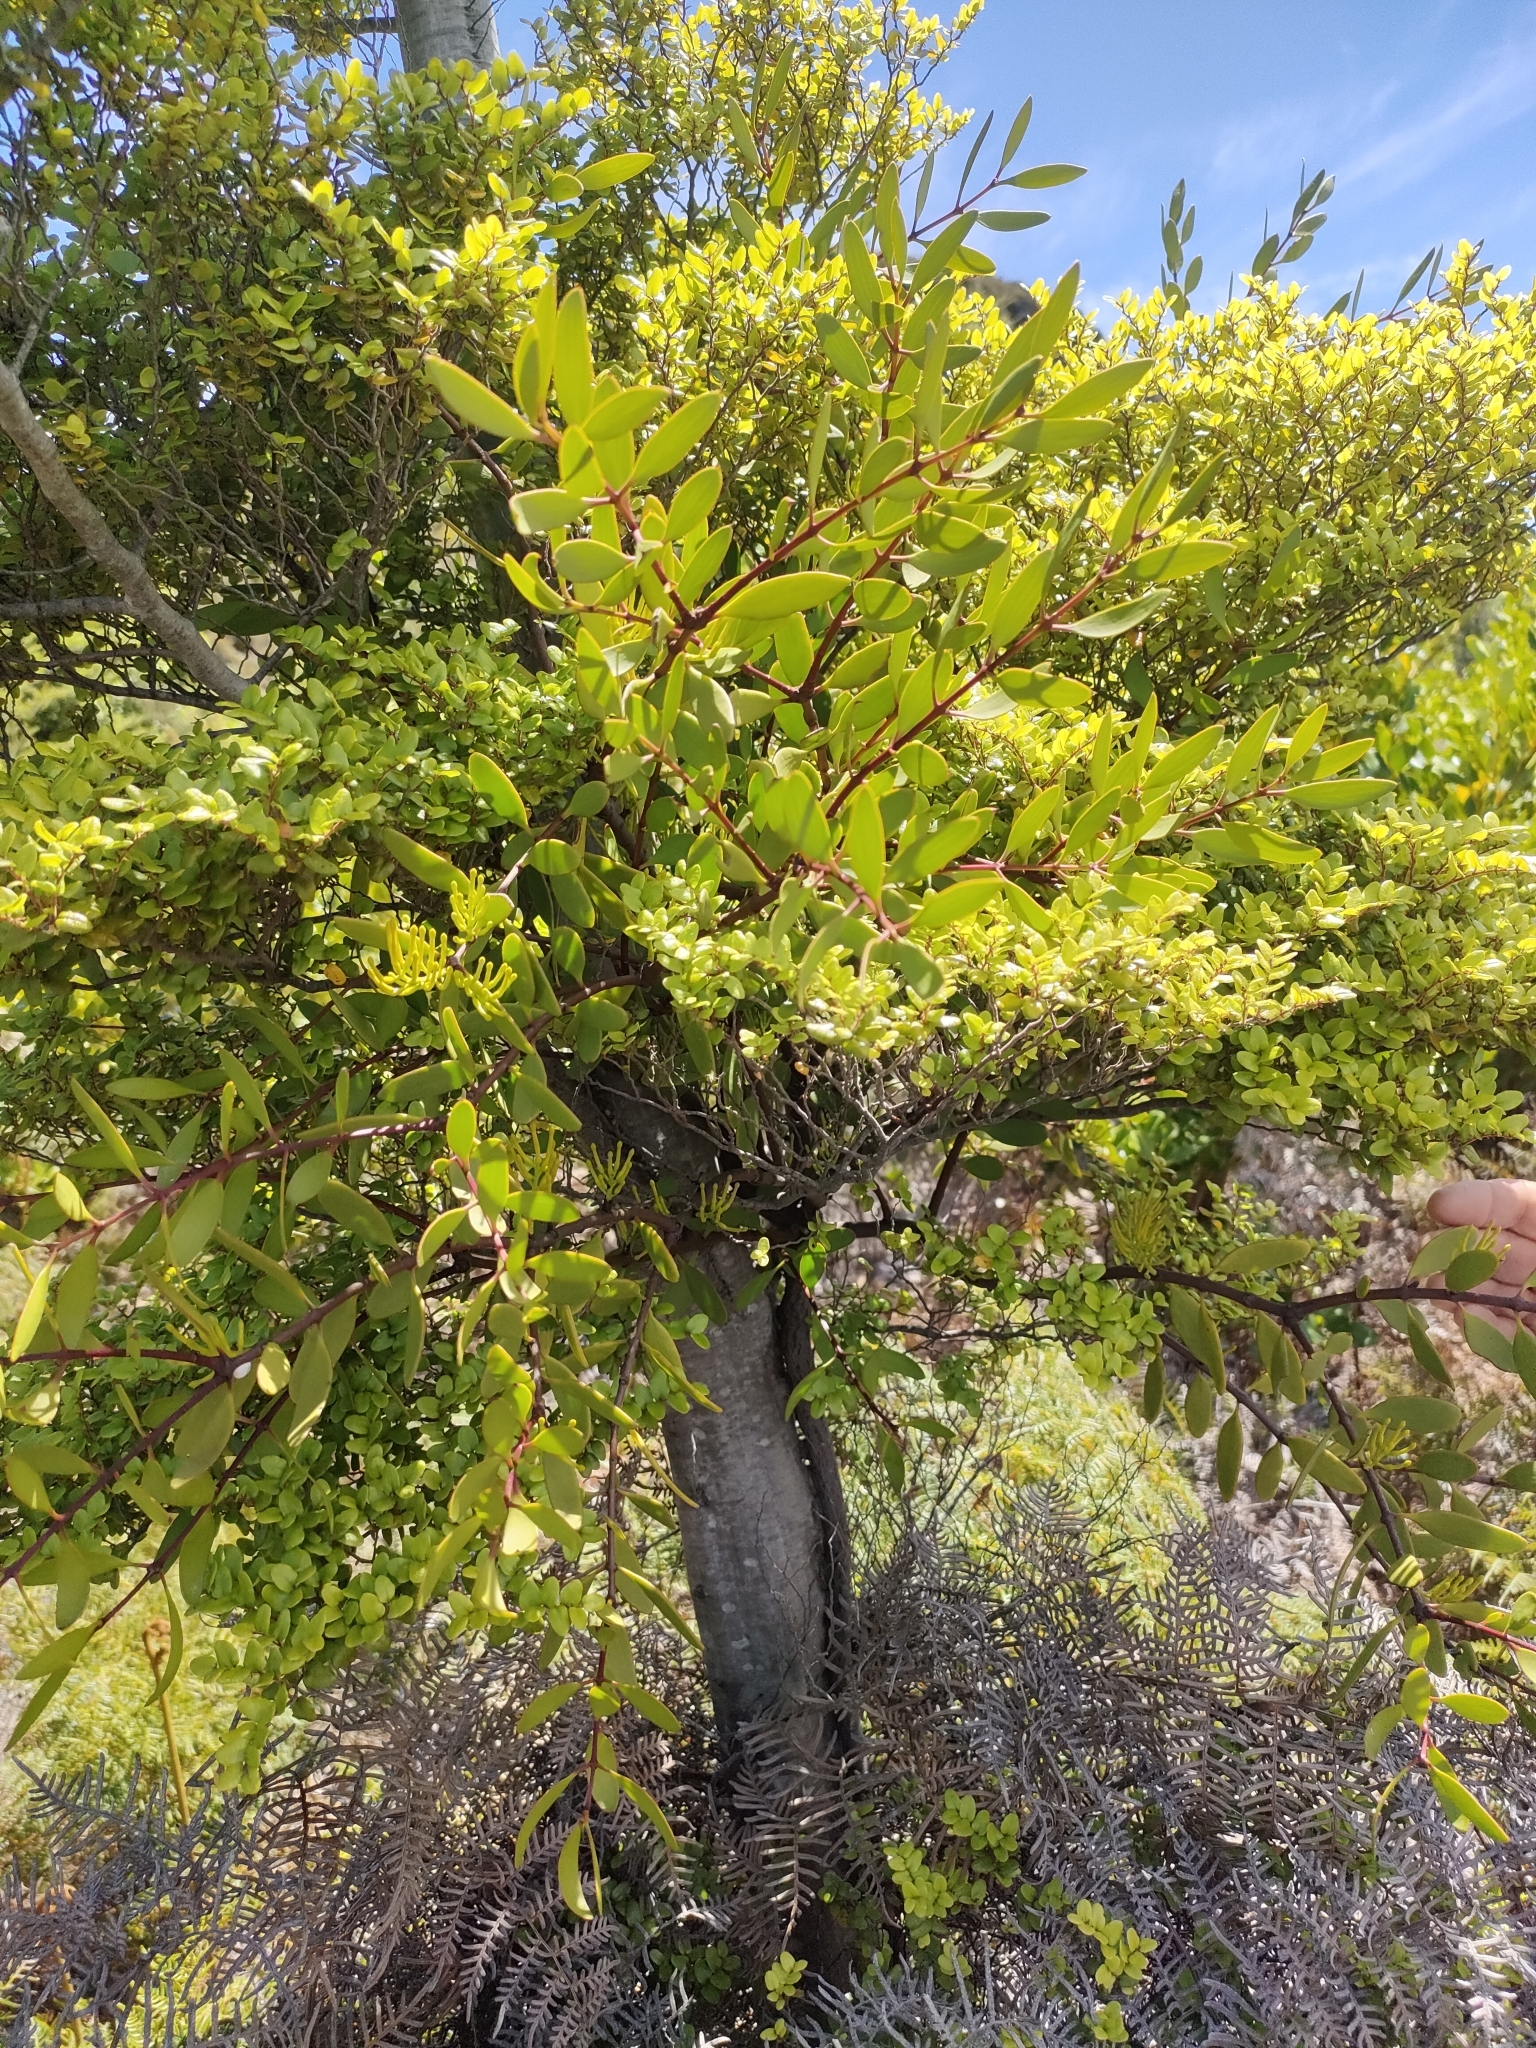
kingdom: Plantae
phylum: Tracheophyta
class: Magnoliopsida
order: Santalales
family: Loranthaceae
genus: Alepis
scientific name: Alepis flavida
